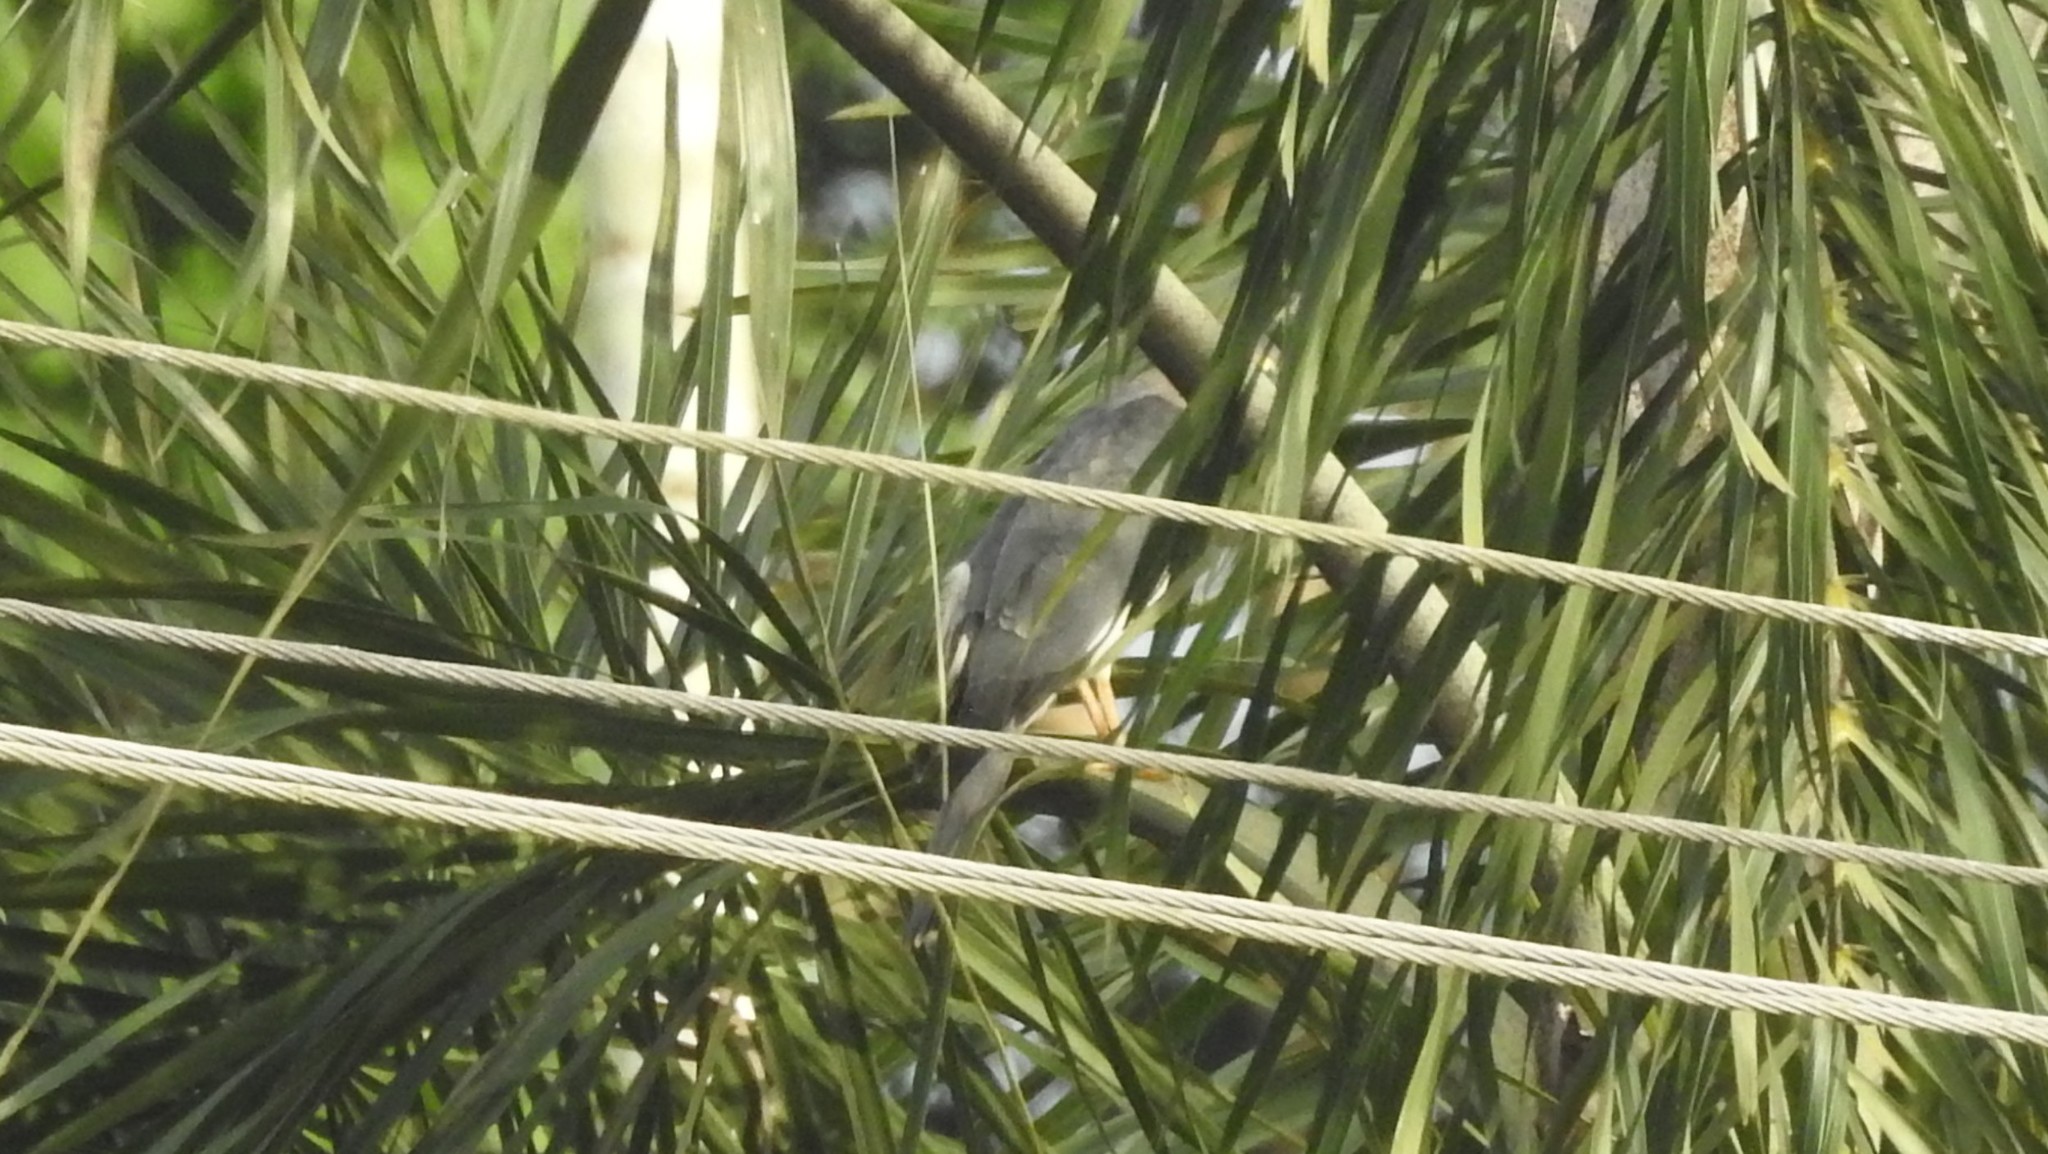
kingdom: Animalia
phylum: Chordata
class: Aves
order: Accipitriformes
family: Accipitridae
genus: Accipiter
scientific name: Accipiter badius
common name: Shikra
